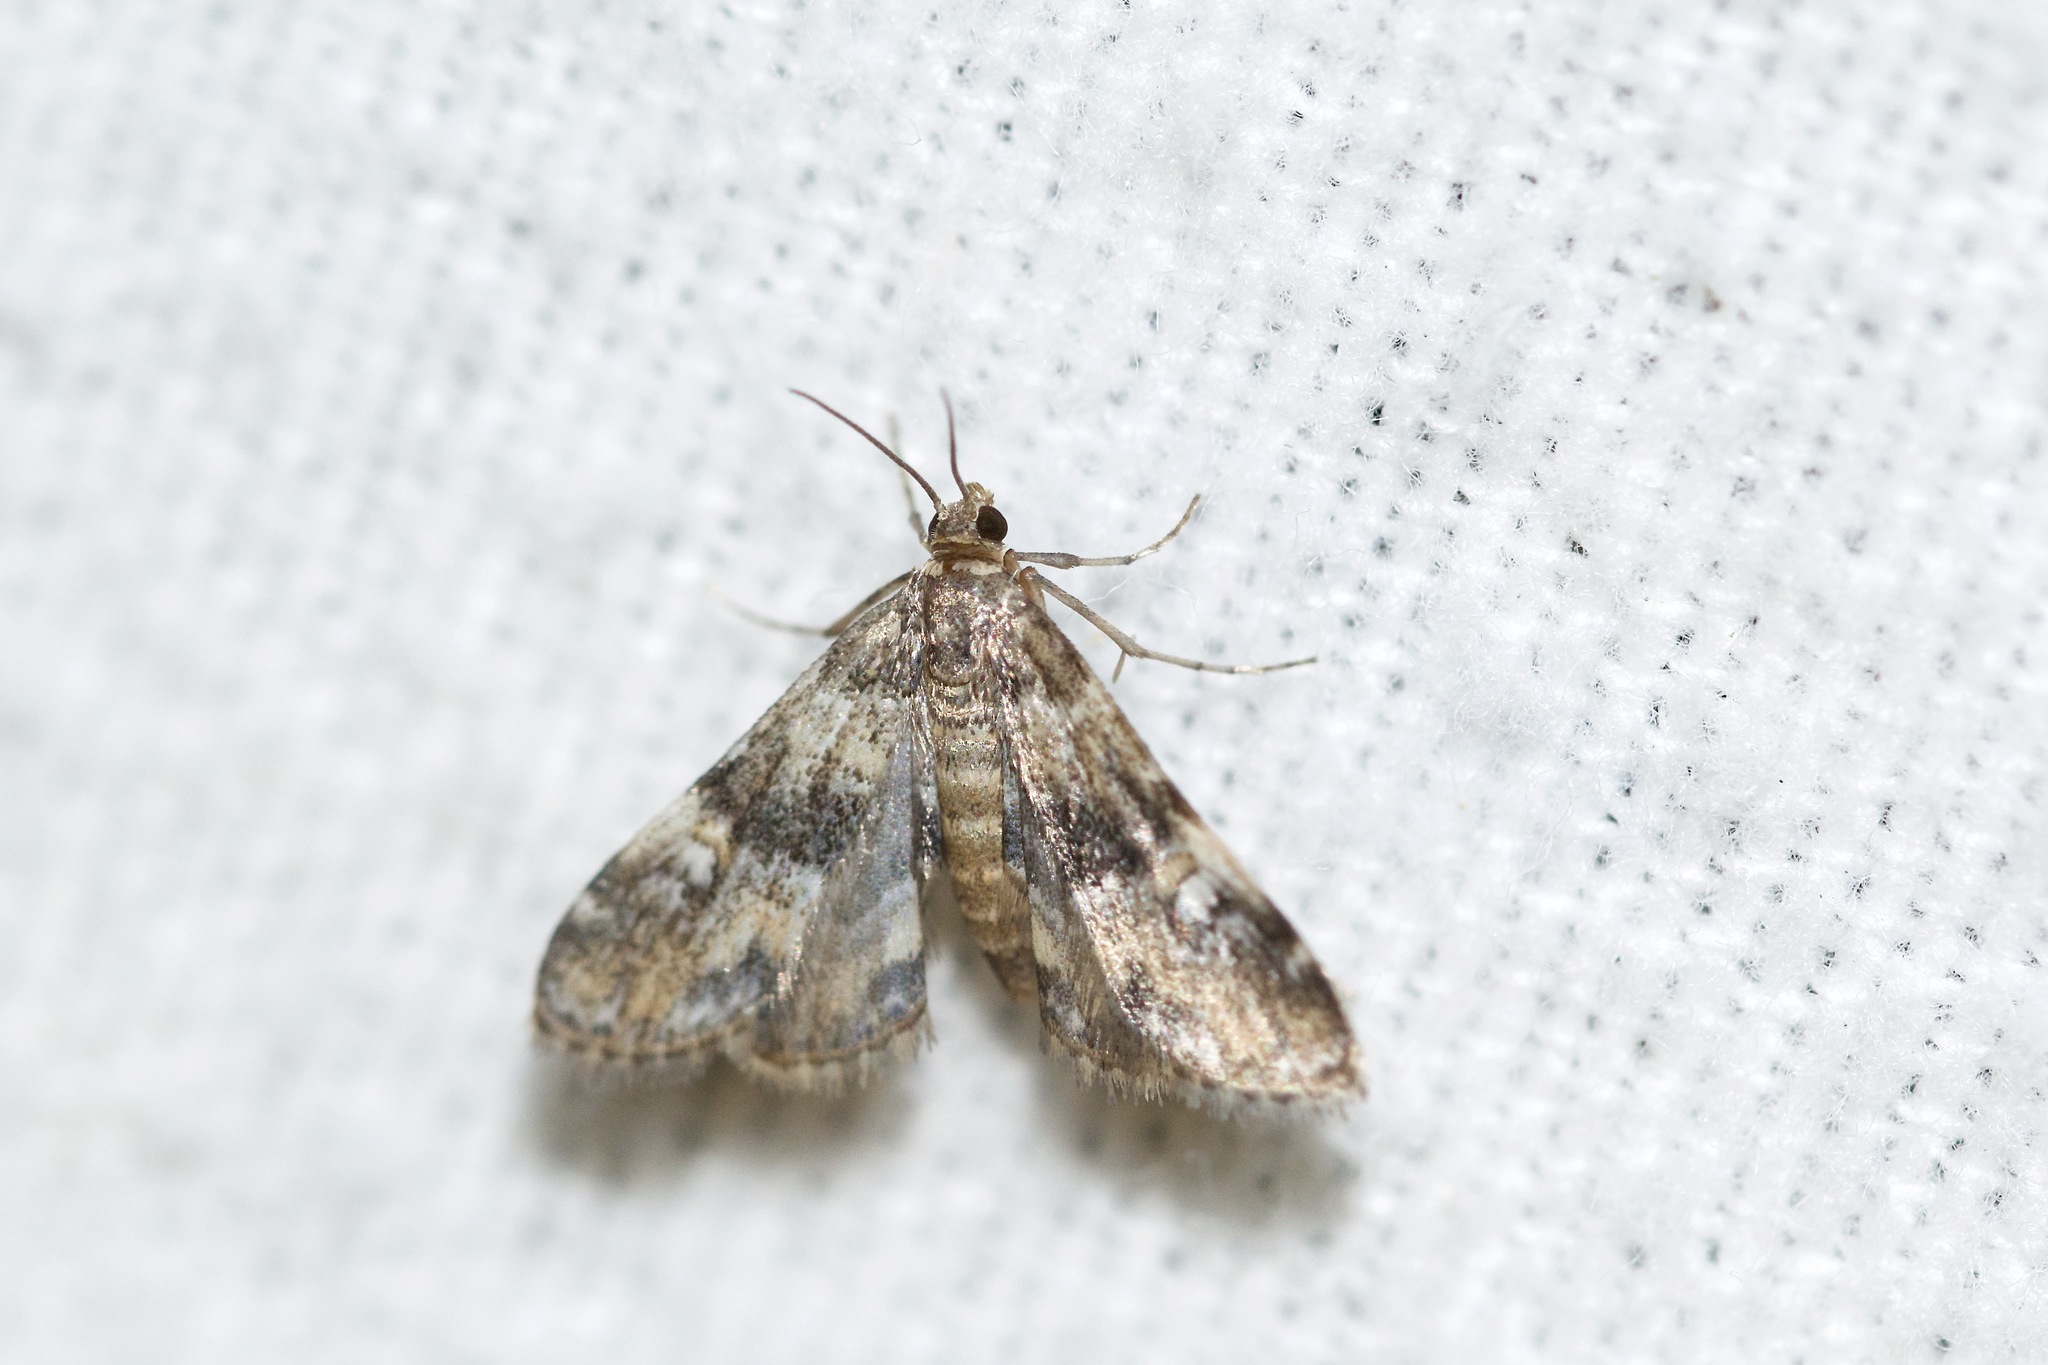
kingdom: Animalia
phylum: Arthropoda
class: Insecta
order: Lepidoptera
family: Crambidae
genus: Elophila
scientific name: Elophila obliteralis
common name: Waterlily leafcutter moth
